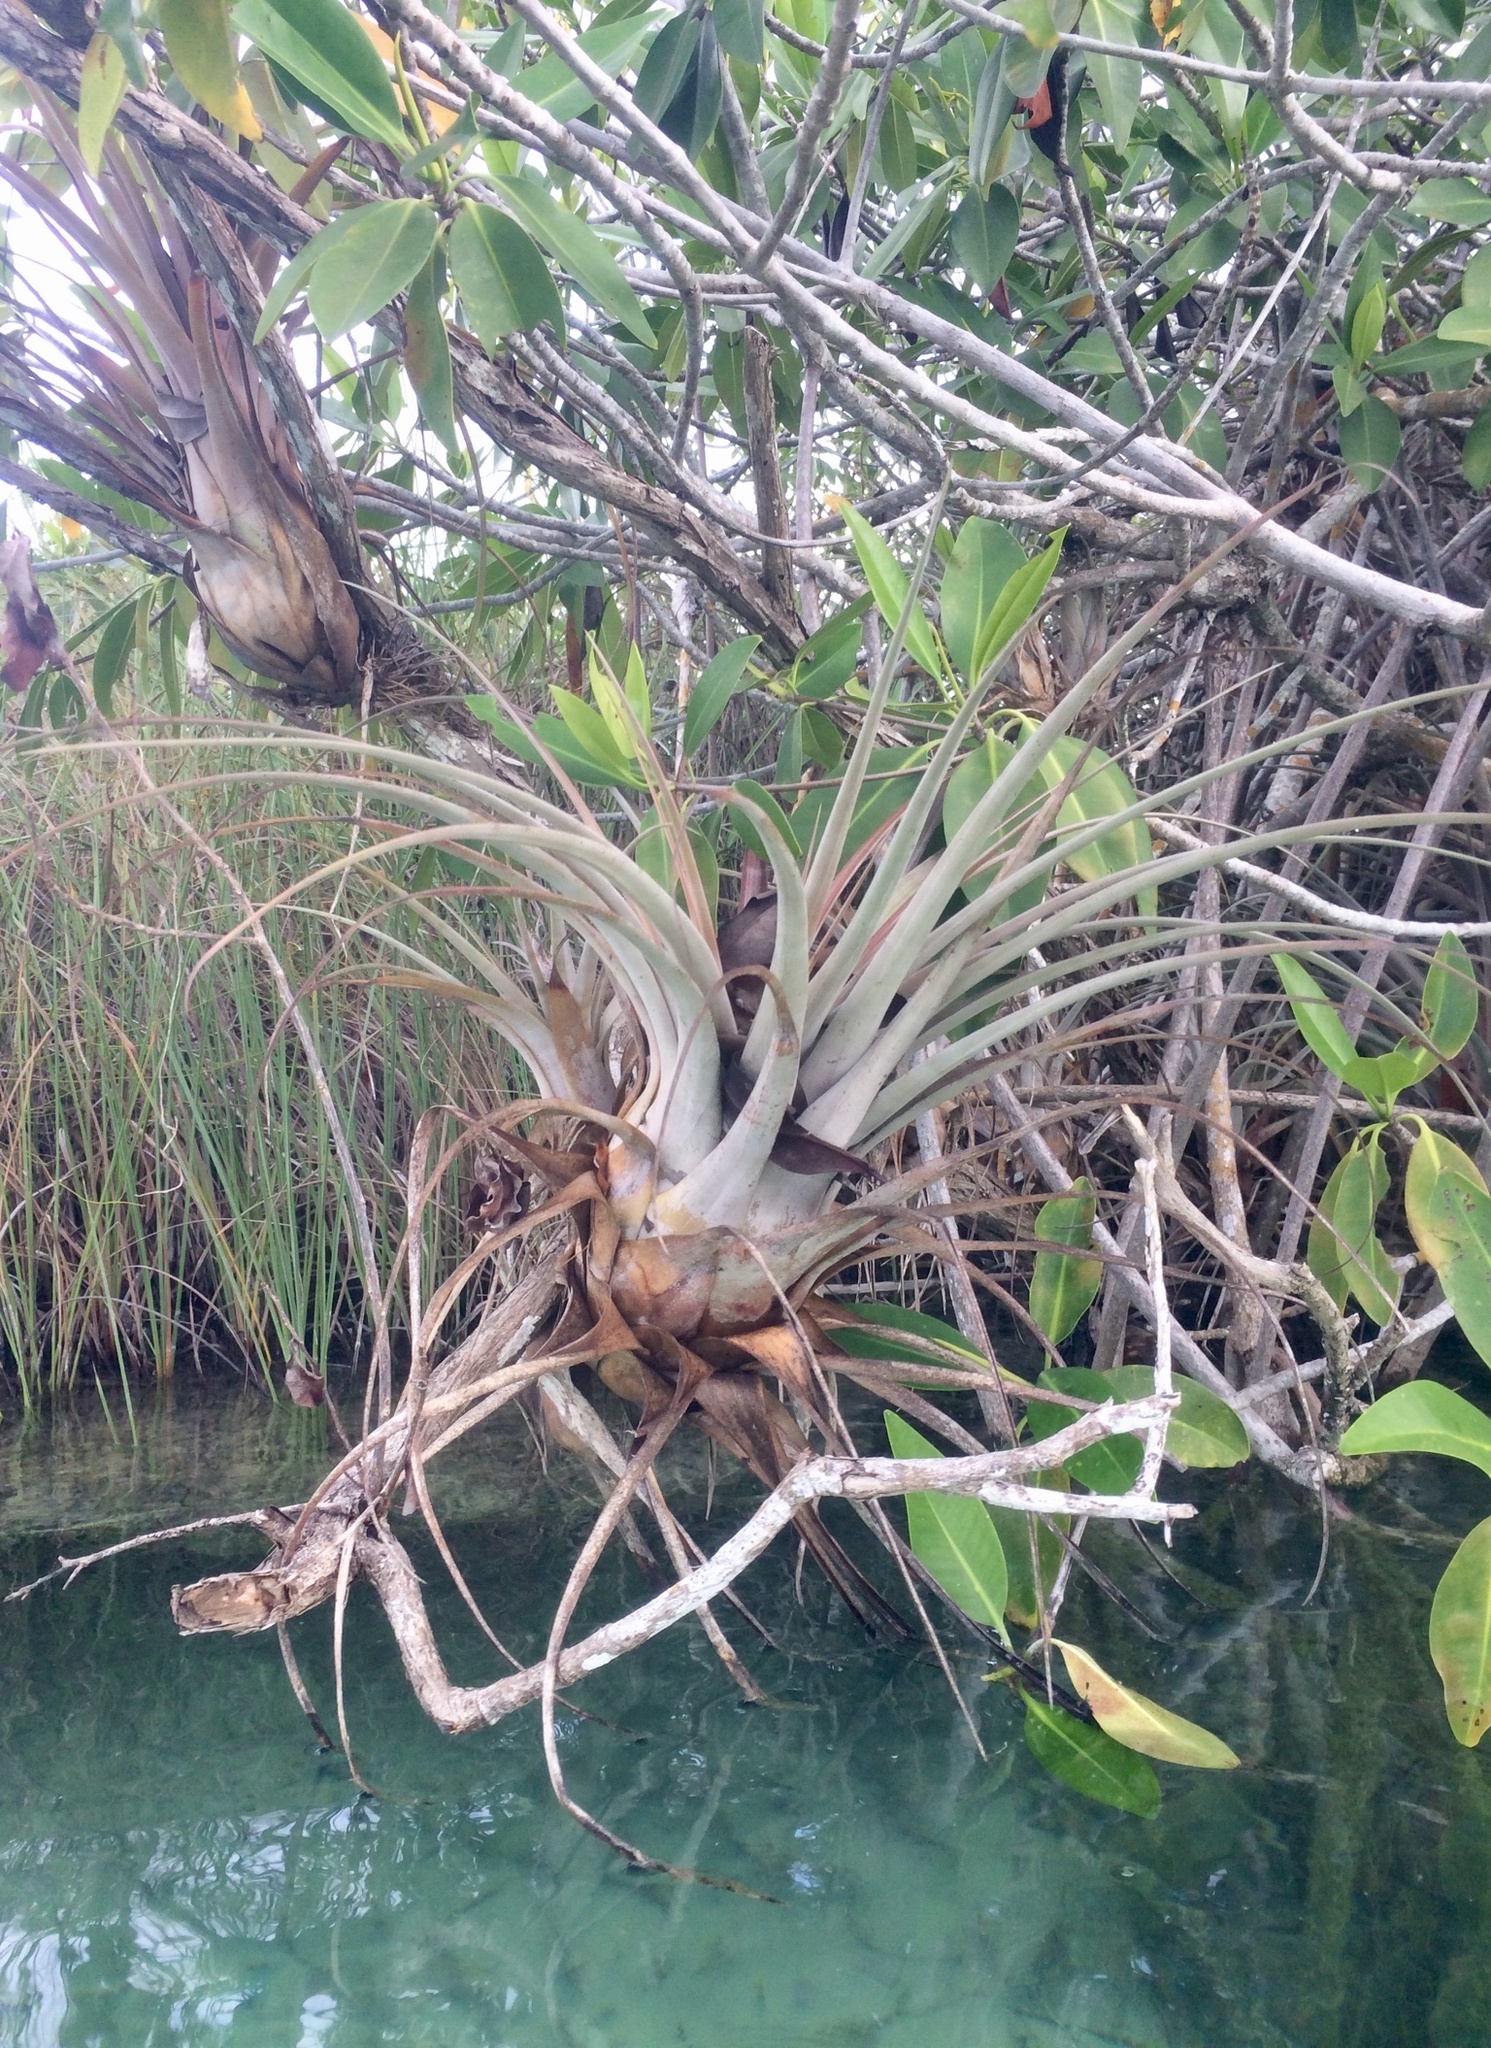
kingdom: Plantae
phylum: Tracheophyta
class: Liliopsida
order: Poales
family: Bromeliaceae
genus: Tillandsia
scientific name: Tillandsia dasyliriifolia
